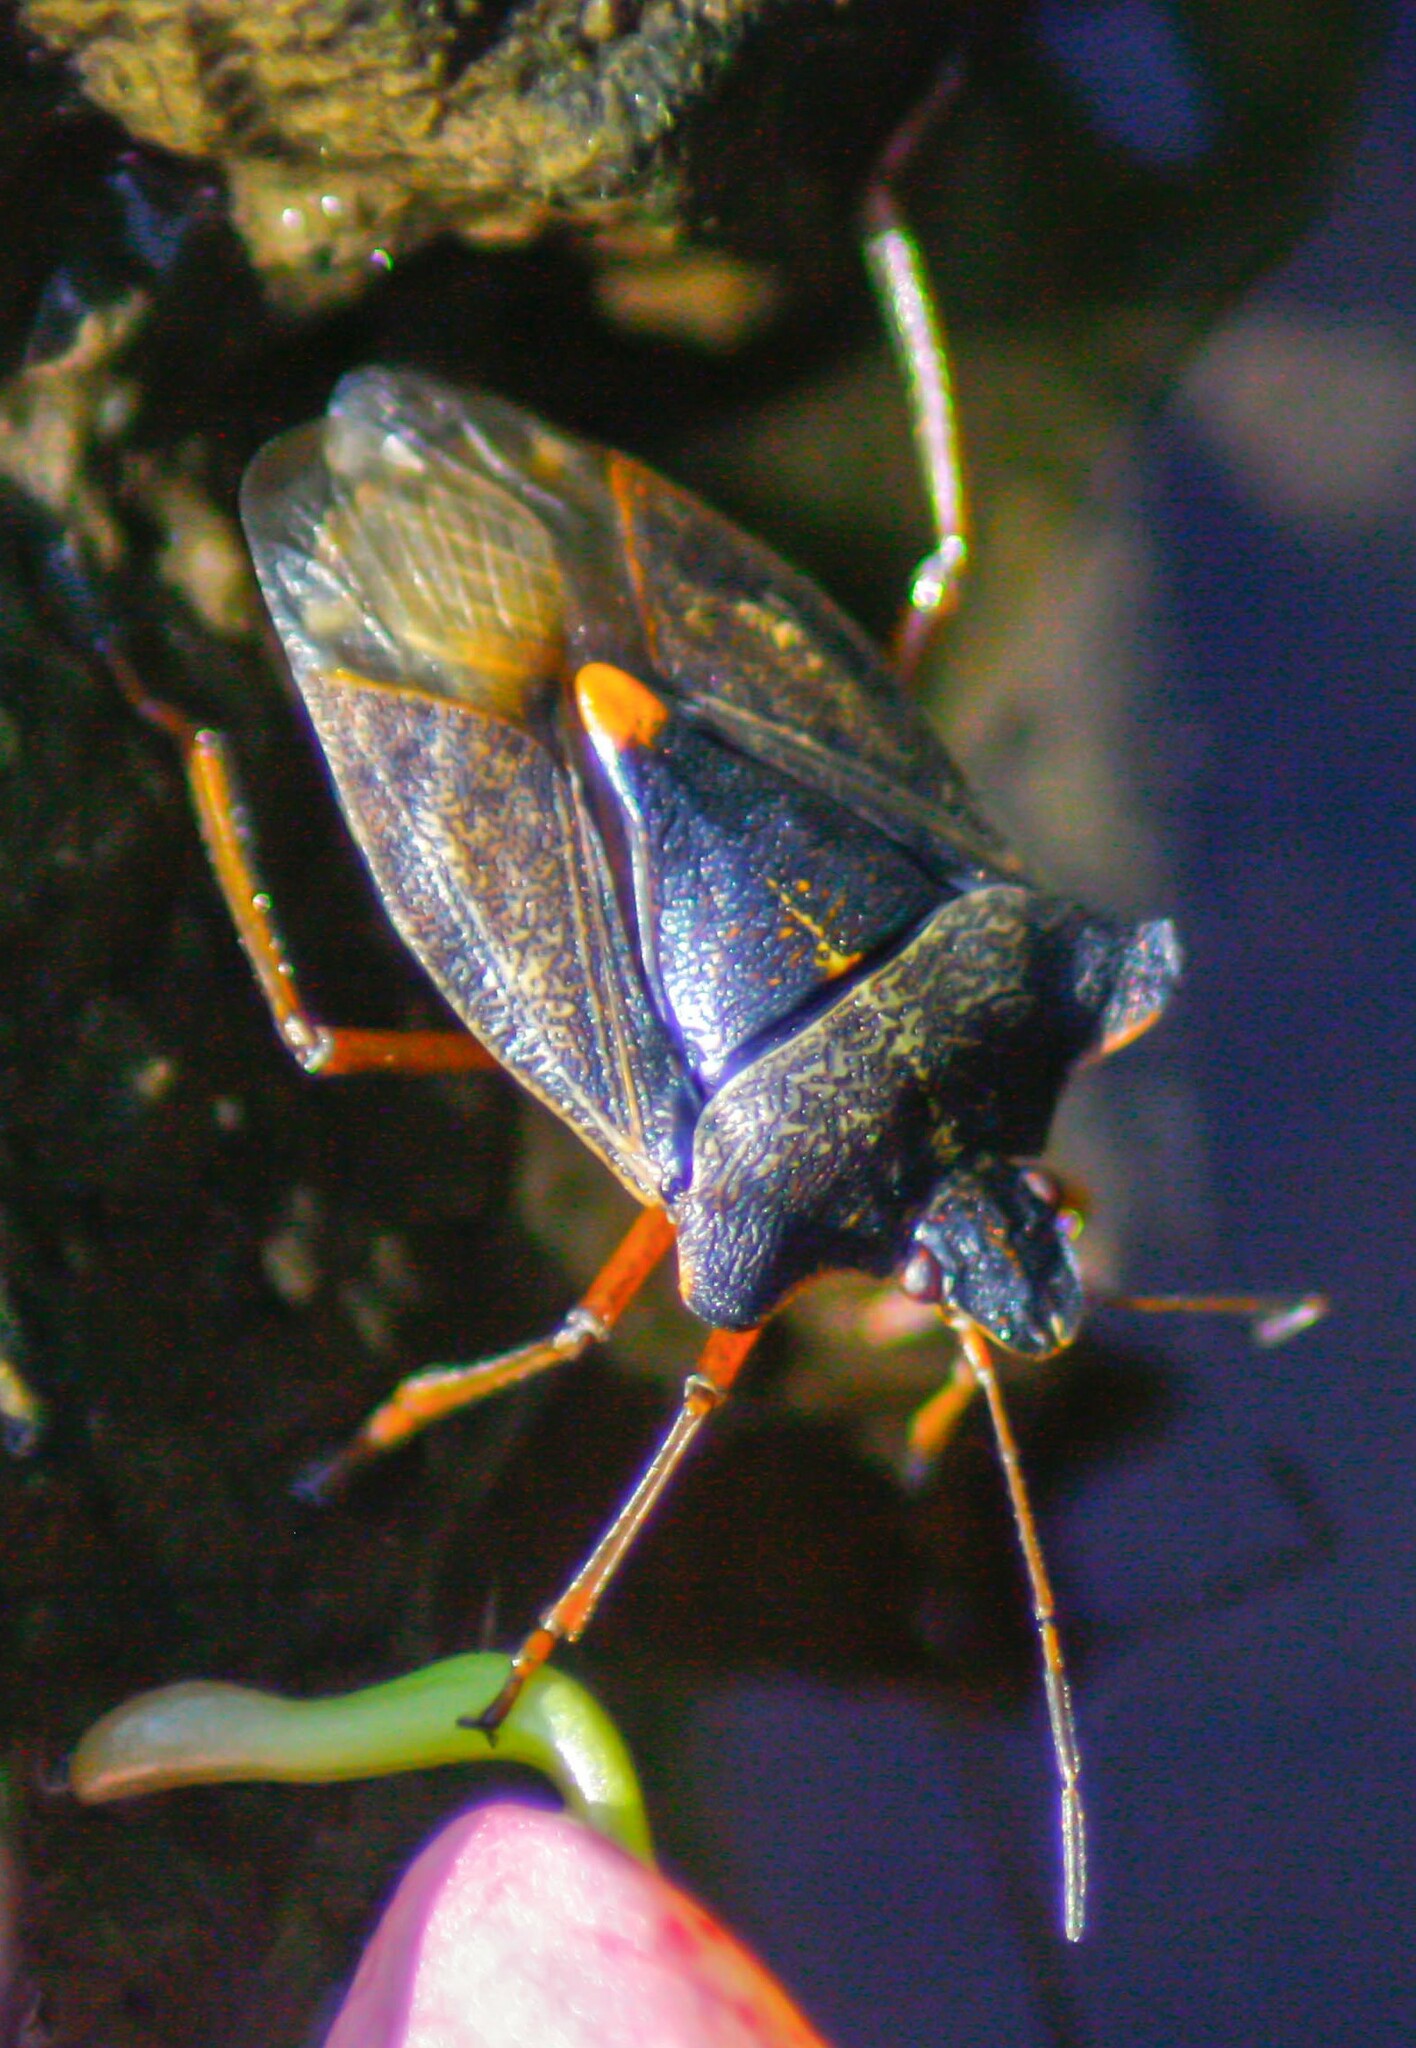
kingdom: Animalia
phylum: Arthropoda
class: Insecta
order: Hemiptera
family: Pentatomidae
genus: Pentatoma
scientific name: Pentatoma rufipes
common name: Forest bug
